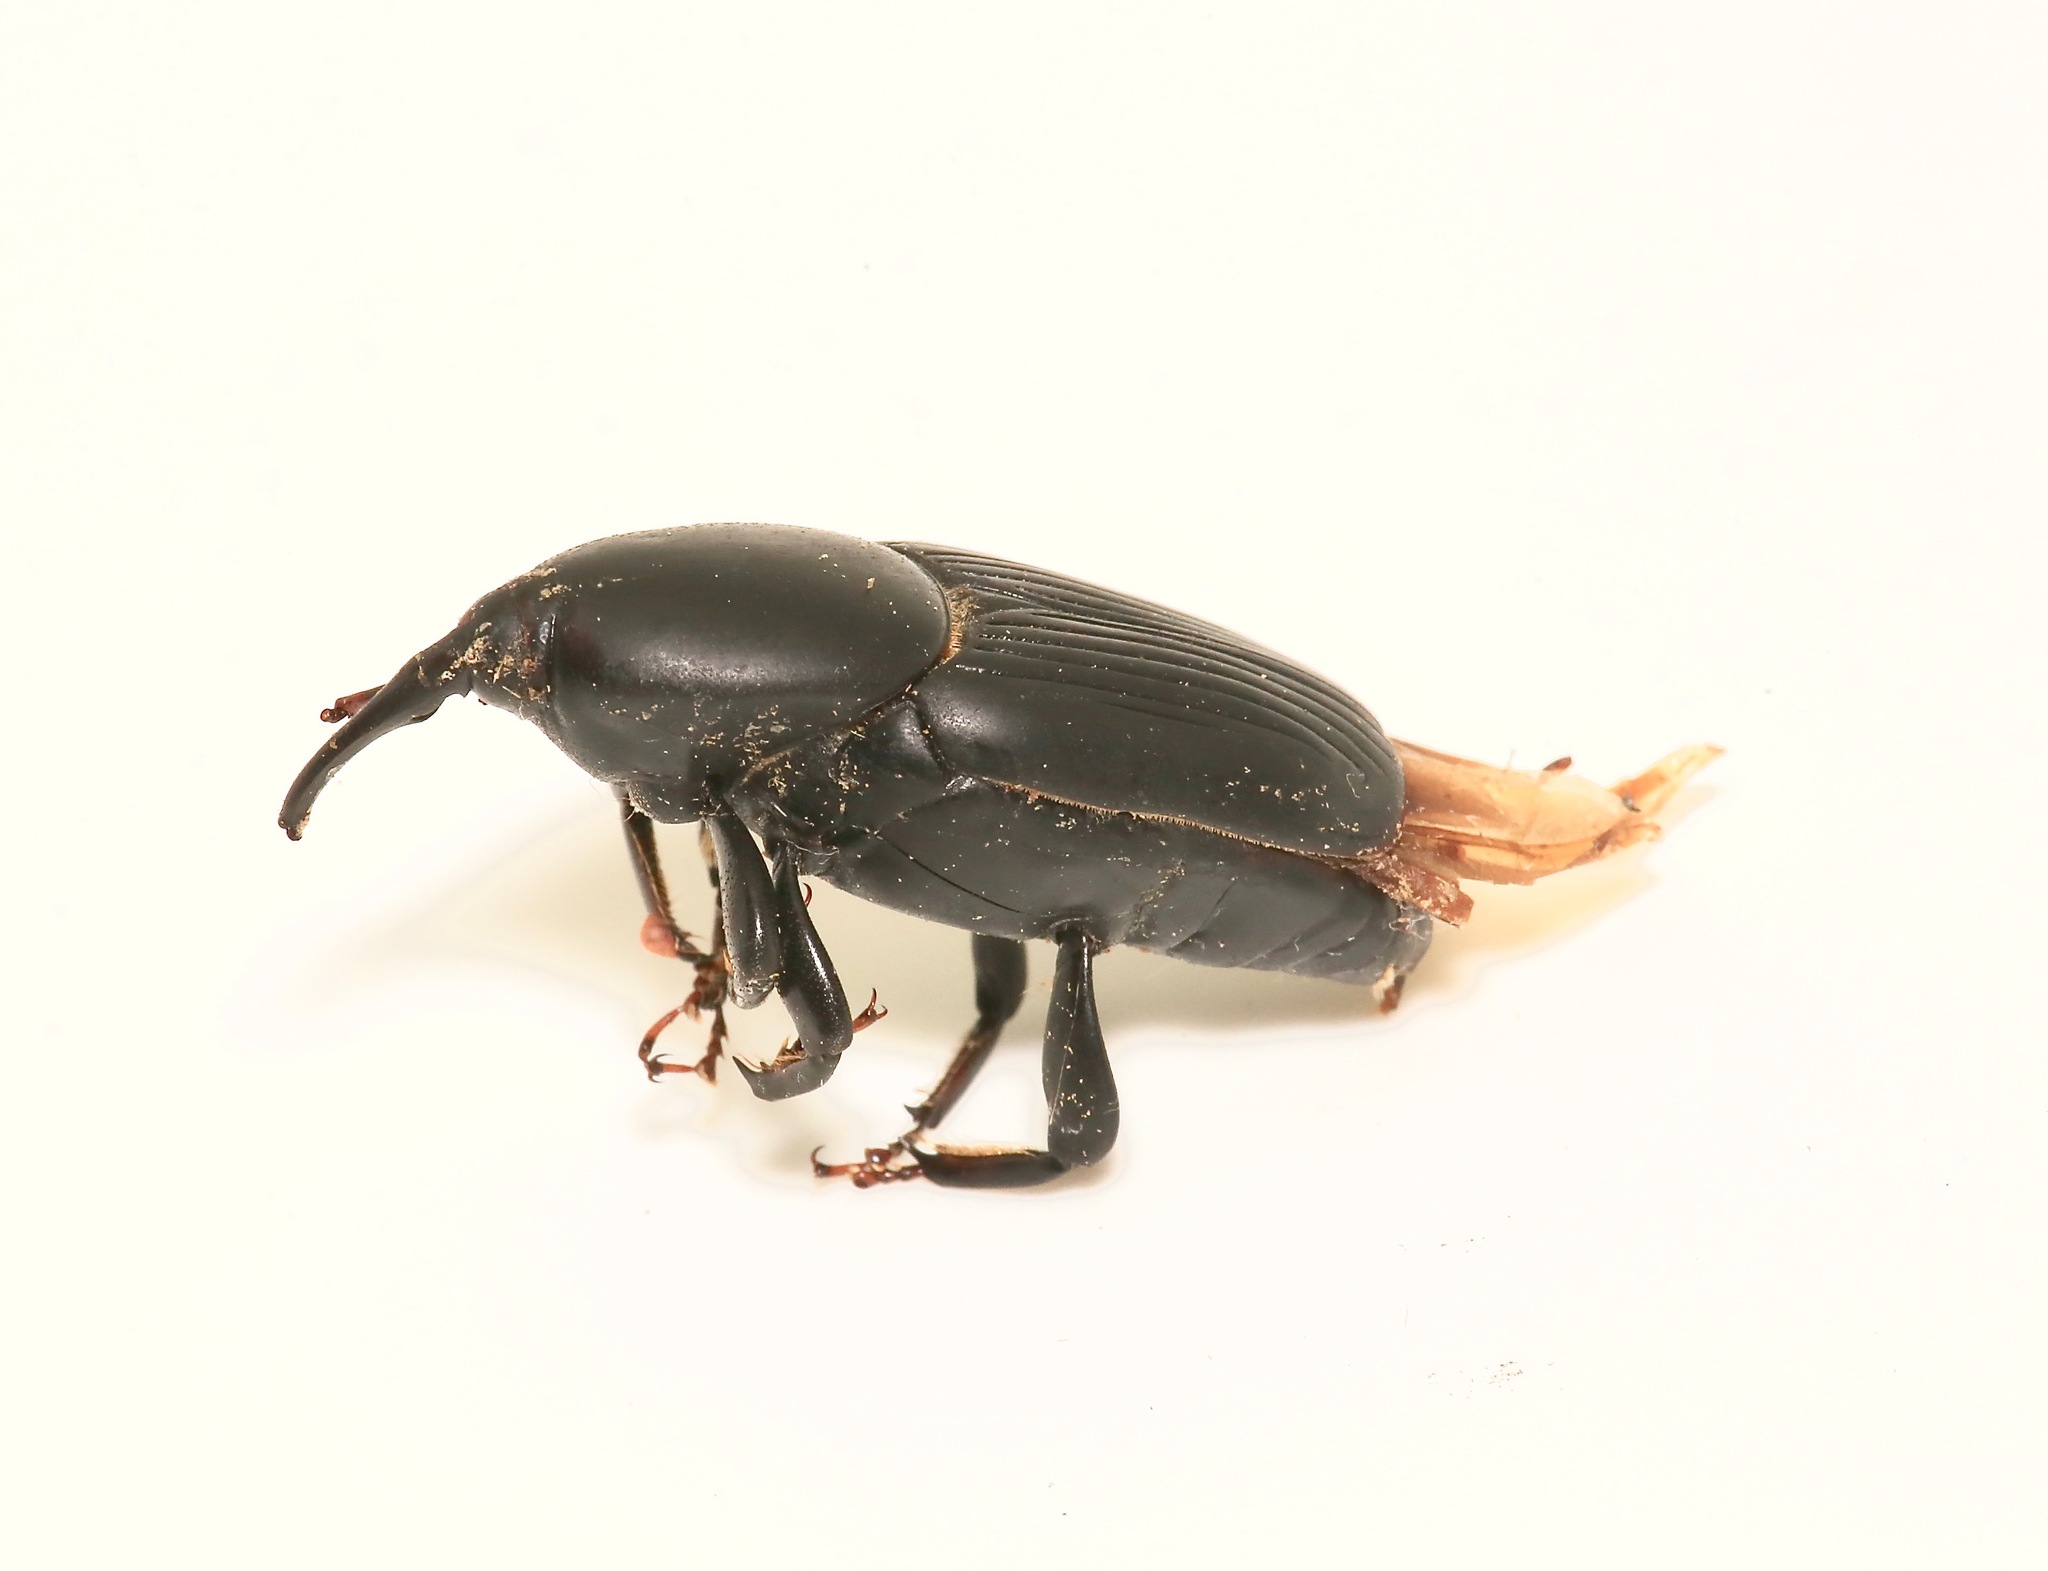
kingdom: Animalia
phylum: Arthropoda
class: Insecta
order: Coleoptera
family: Dryophthoridae
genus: Rhynchophorus
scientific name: Rhynchophorus cruentatus
